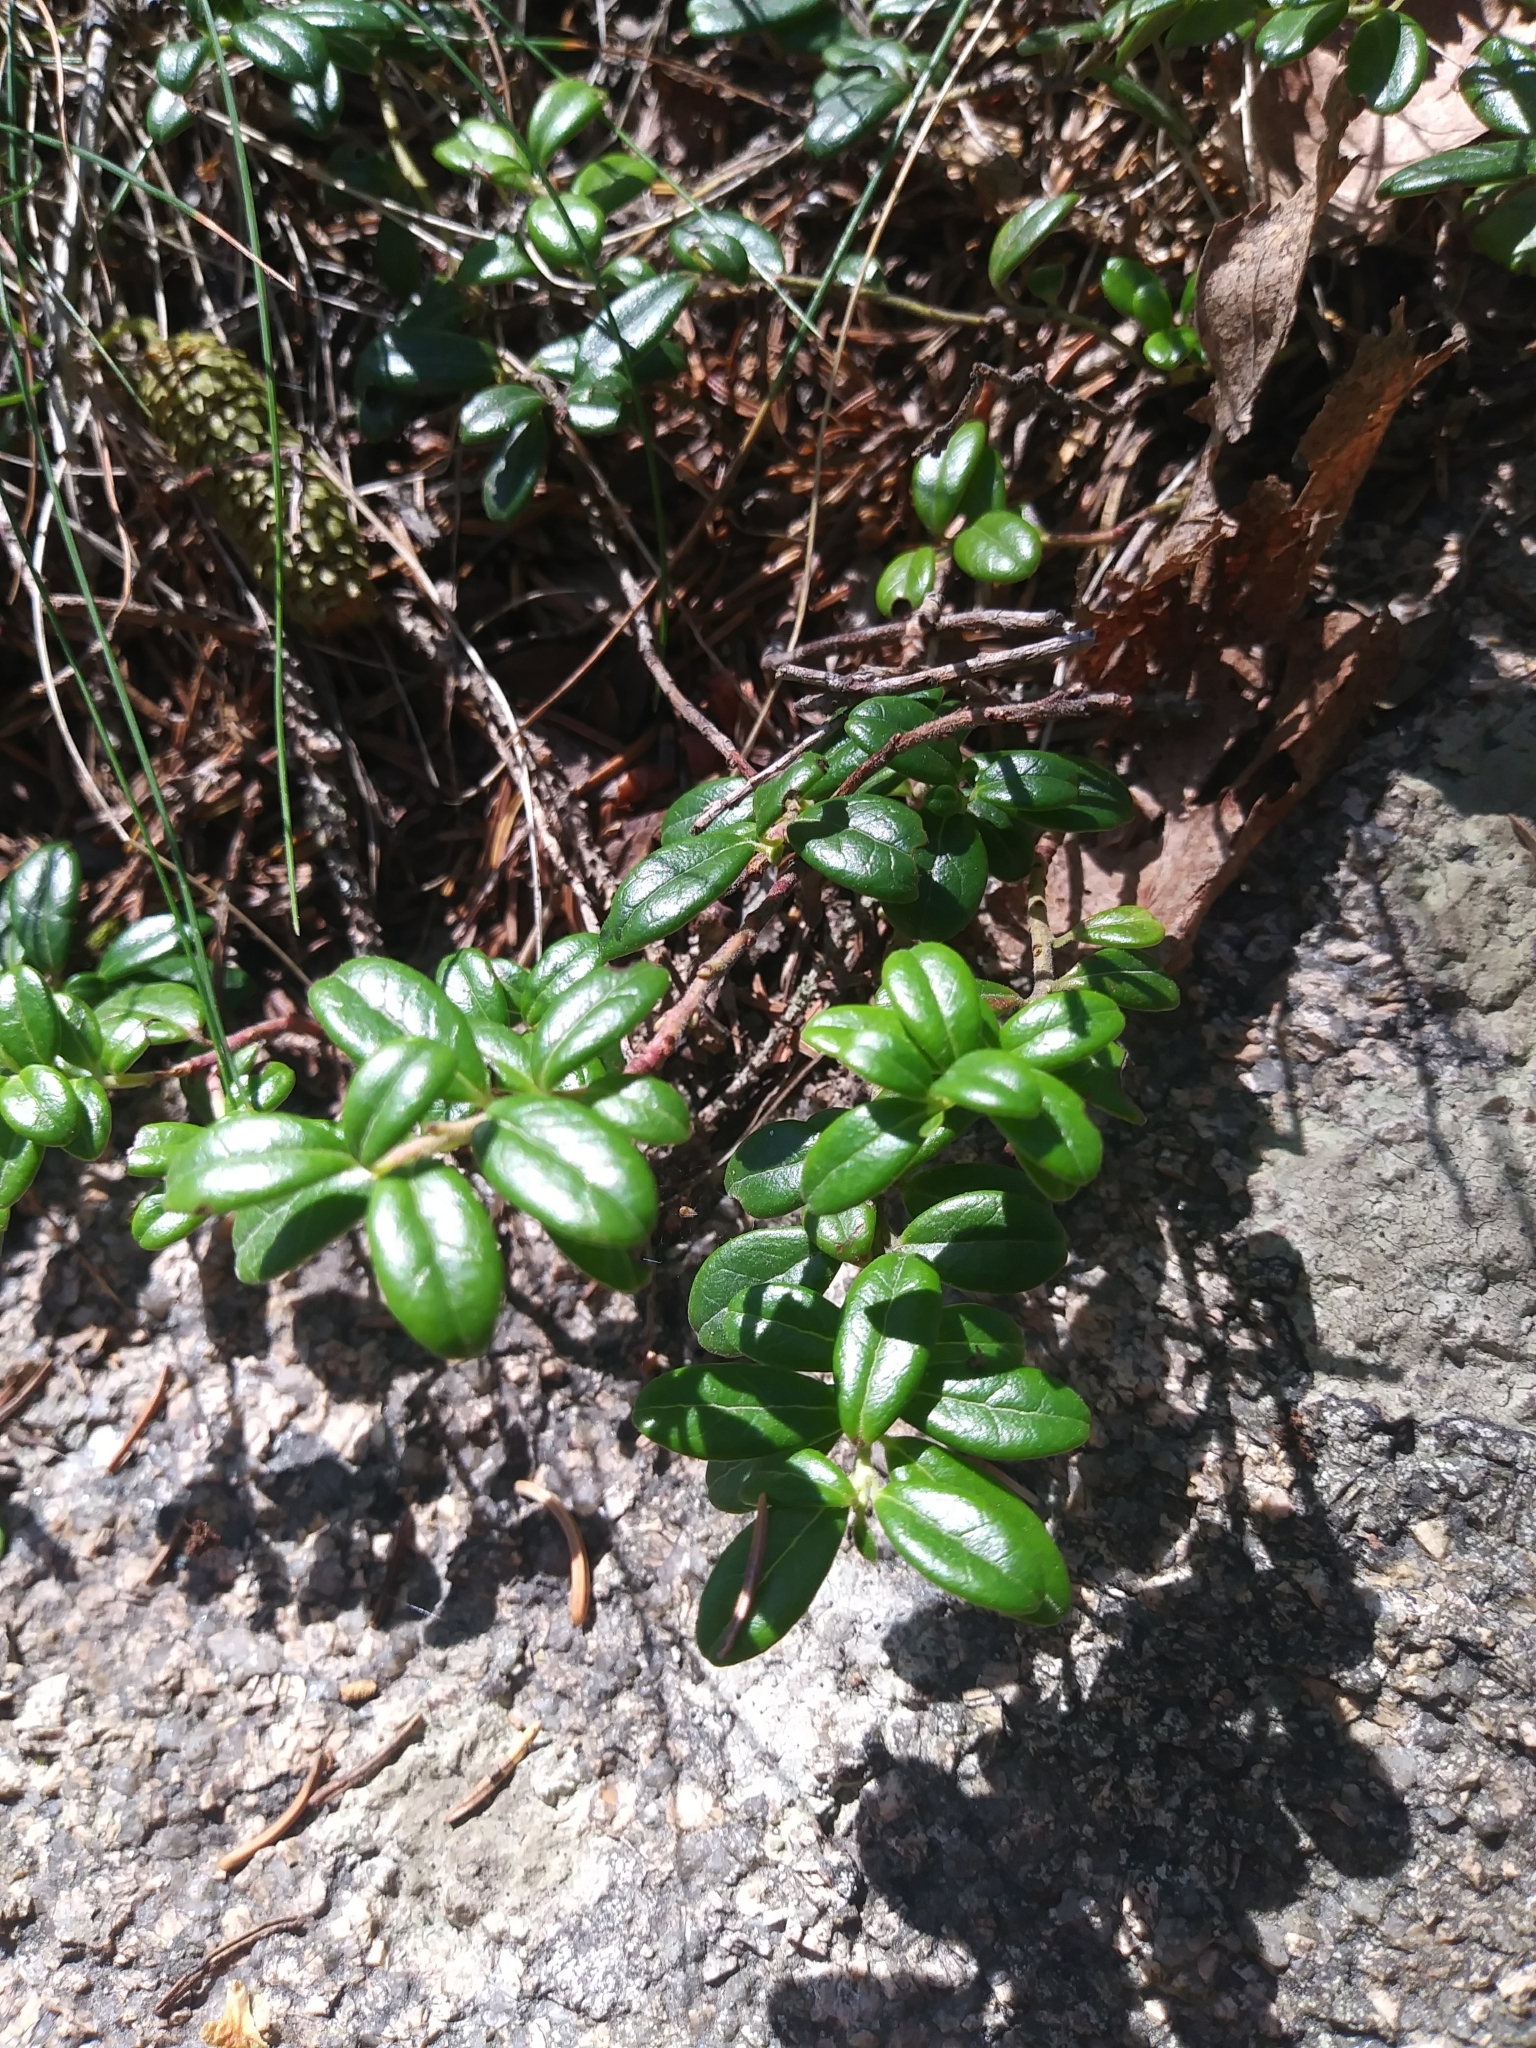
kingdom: Plantae
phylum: Tracheophyta
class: Magnoliopsida
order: Ericales
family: Ericaceae
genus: Vaccinium
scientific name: Vaccinium vitis-idaea
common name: Cowberry
